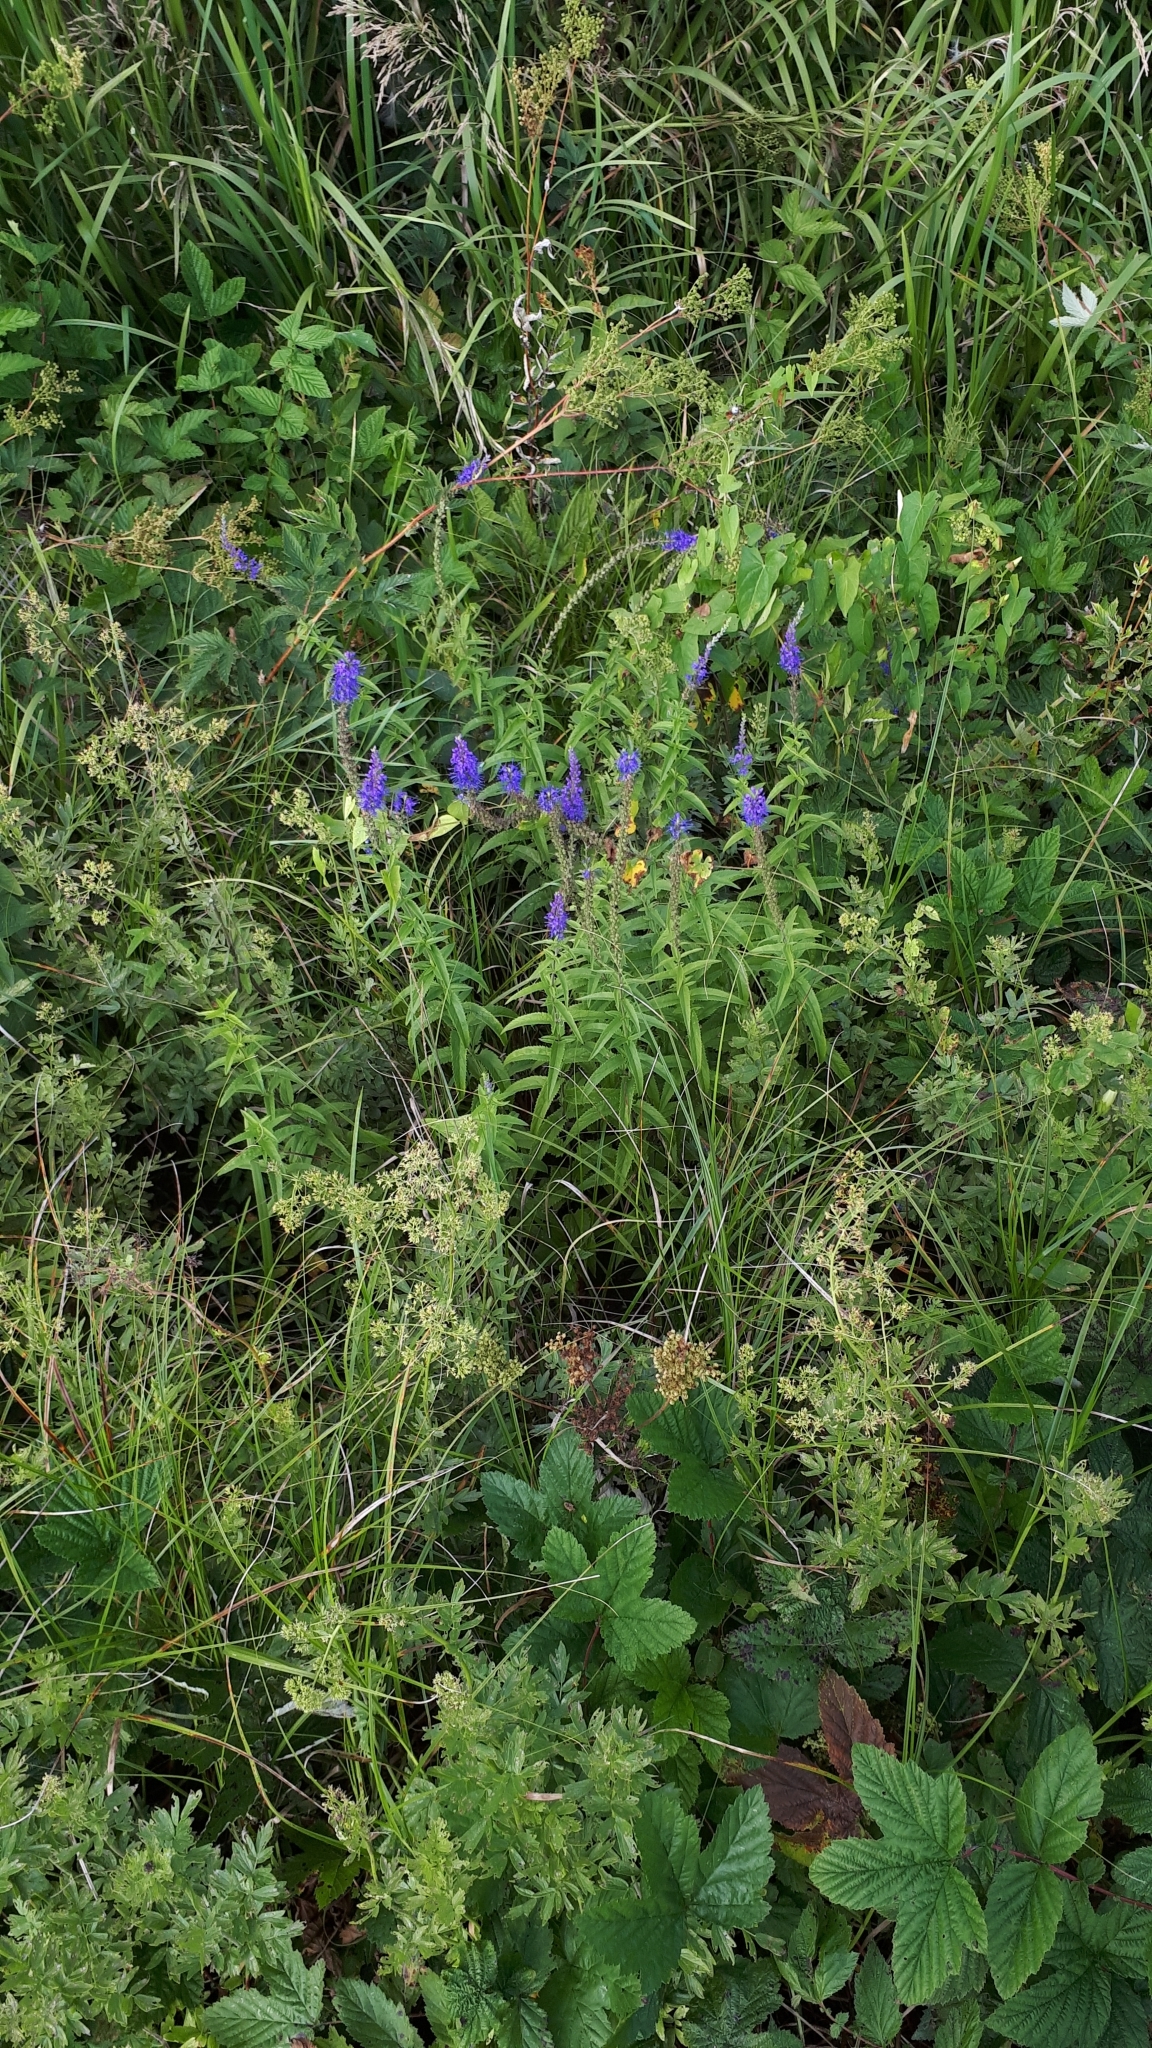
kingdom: Plantae
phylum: Tracheophyta
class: Magnoliopsida
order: Lamiales
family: Plantaginaceae
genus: Veronica
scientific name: Veronica longifolia
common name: Garden speedwell
